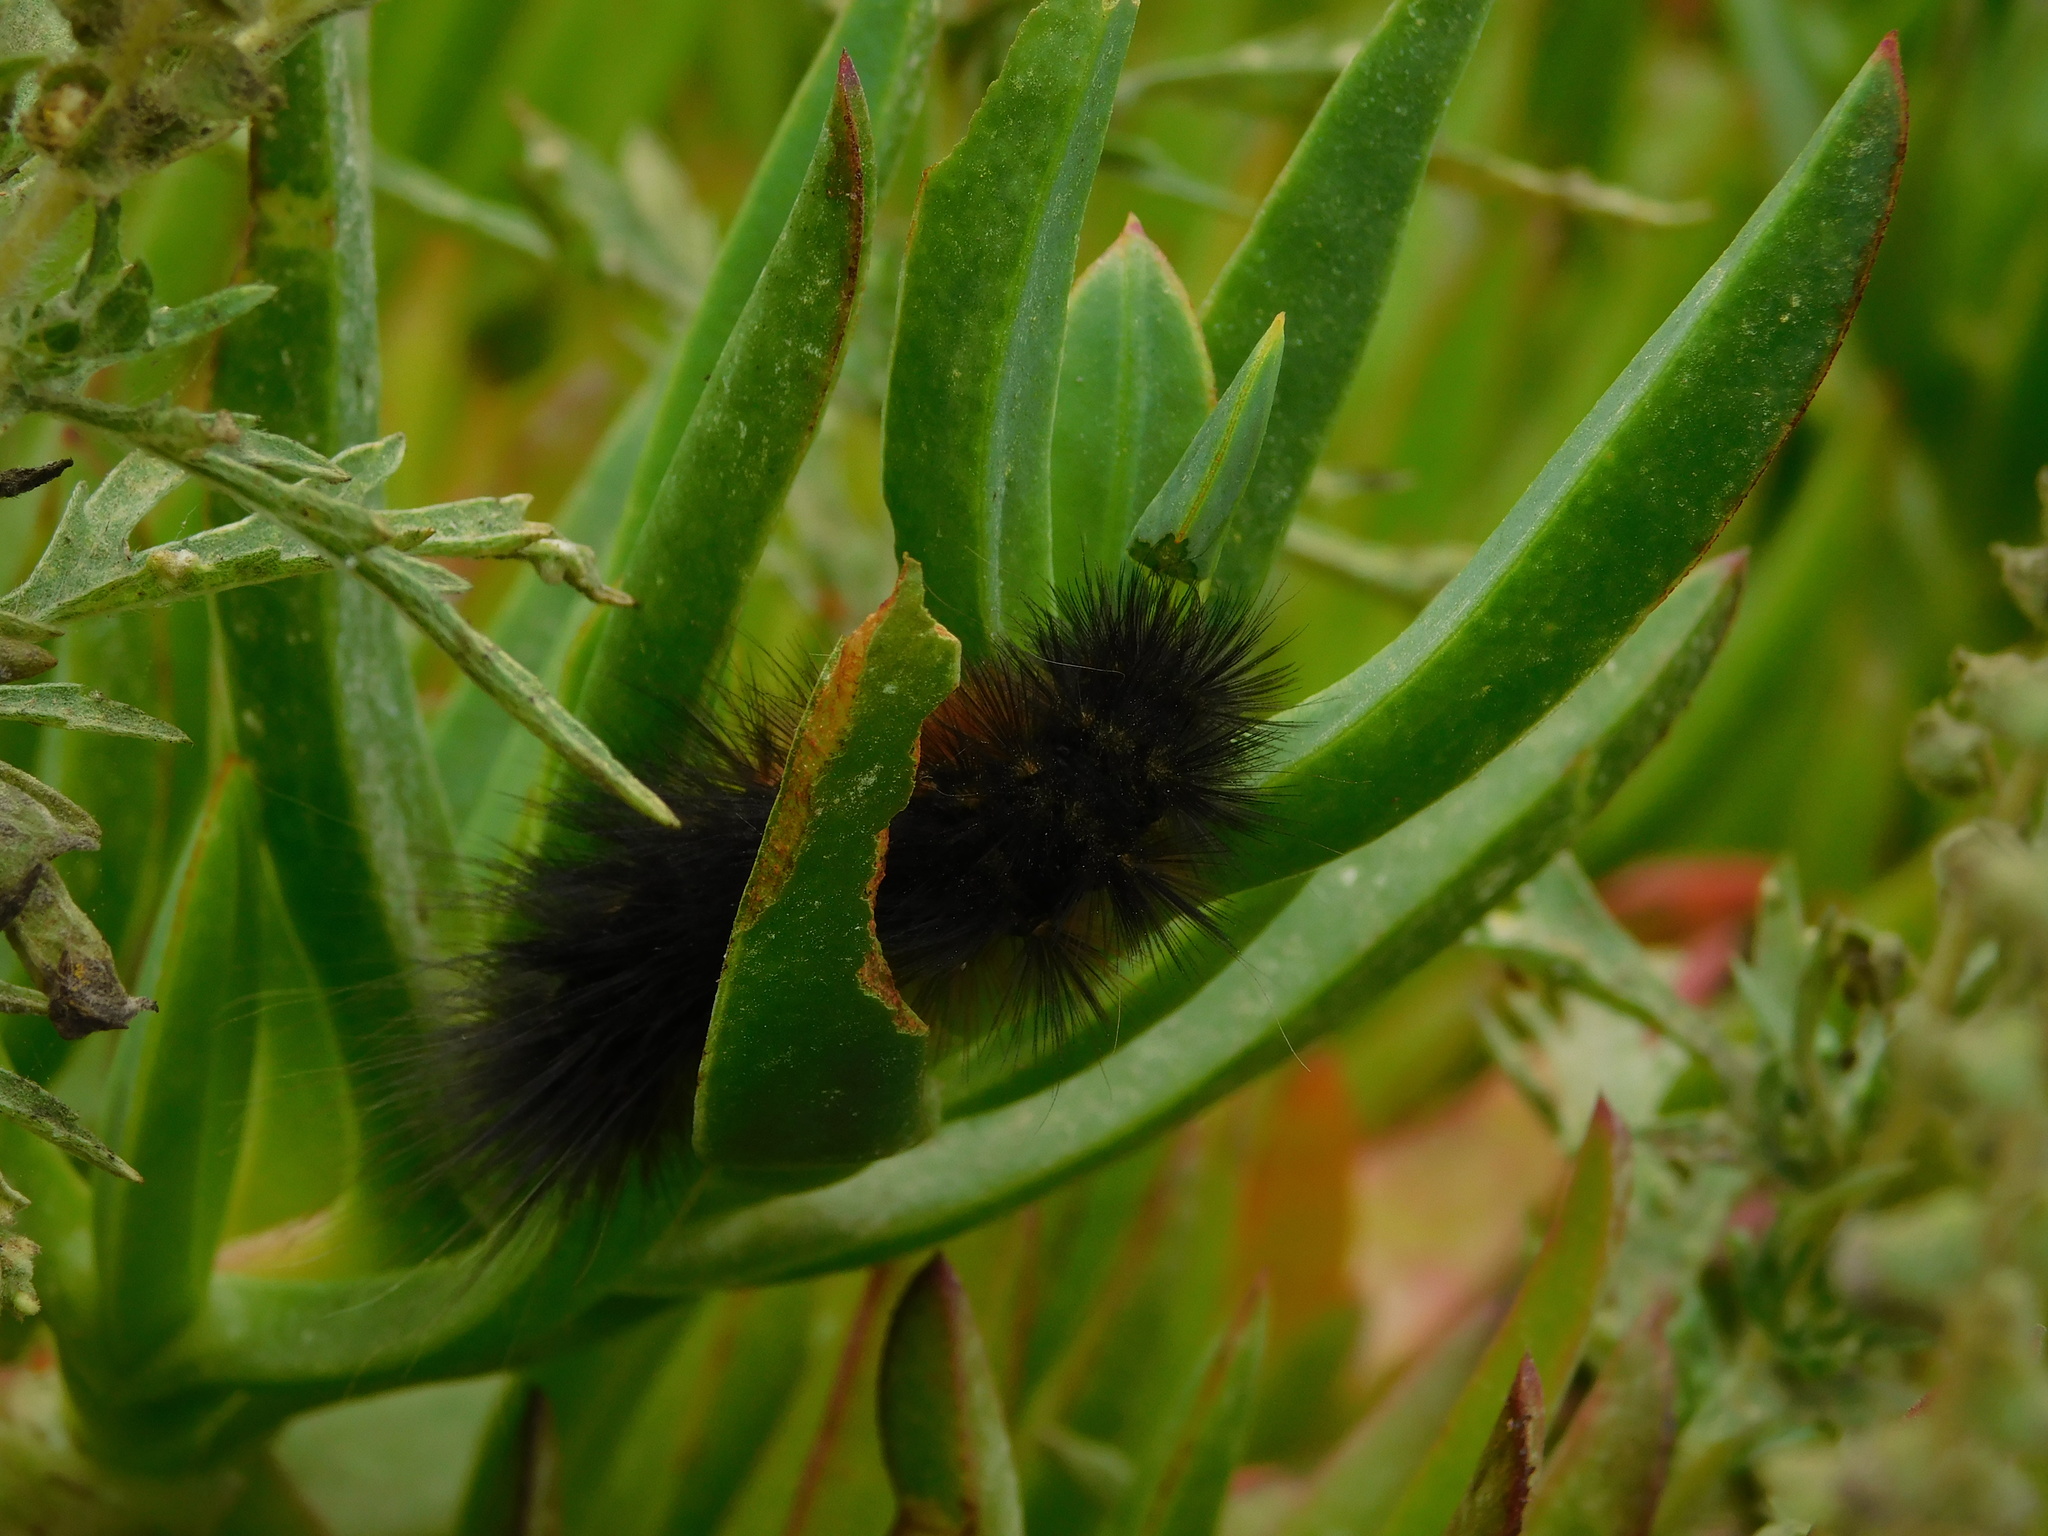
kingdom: Animalia
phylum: Arthropoda
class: Insecta
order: Lepidoptera
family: Erebidae
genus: Estigmene
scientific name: Estigmene acrea
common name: Salt marsh moth
